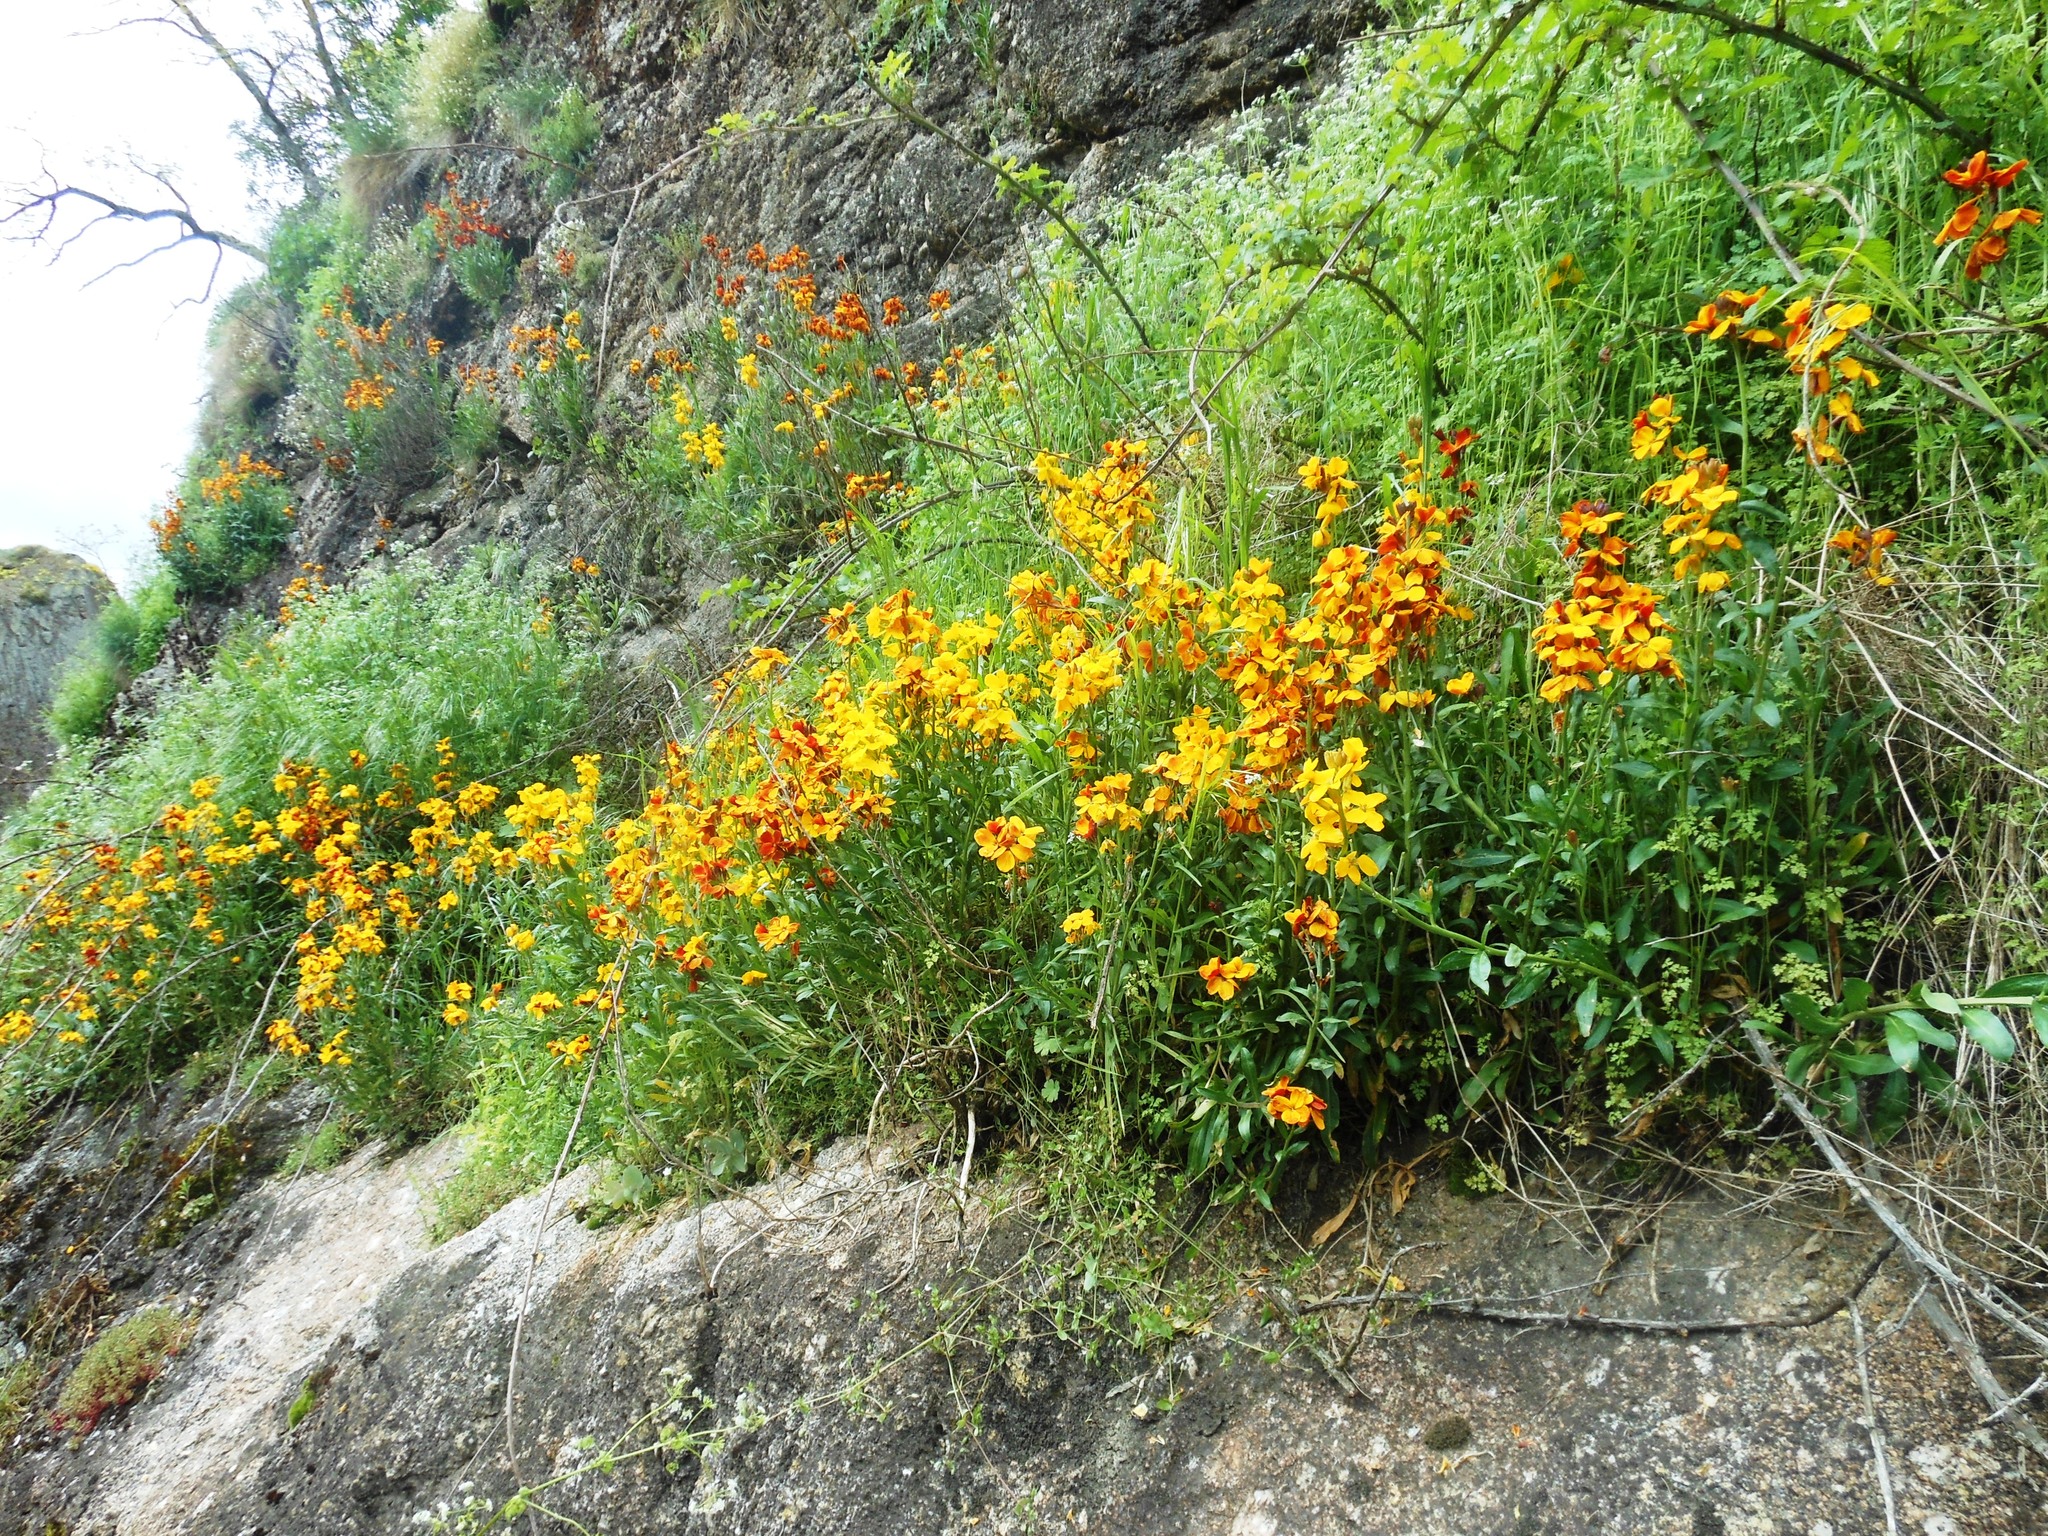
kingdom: Plantae
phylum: Tracheophyta
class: Magnoliopsida
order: Brassicales
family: Brassicaceae
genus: Erysimum
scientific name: Erysimum cheiri
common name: Wallflower
